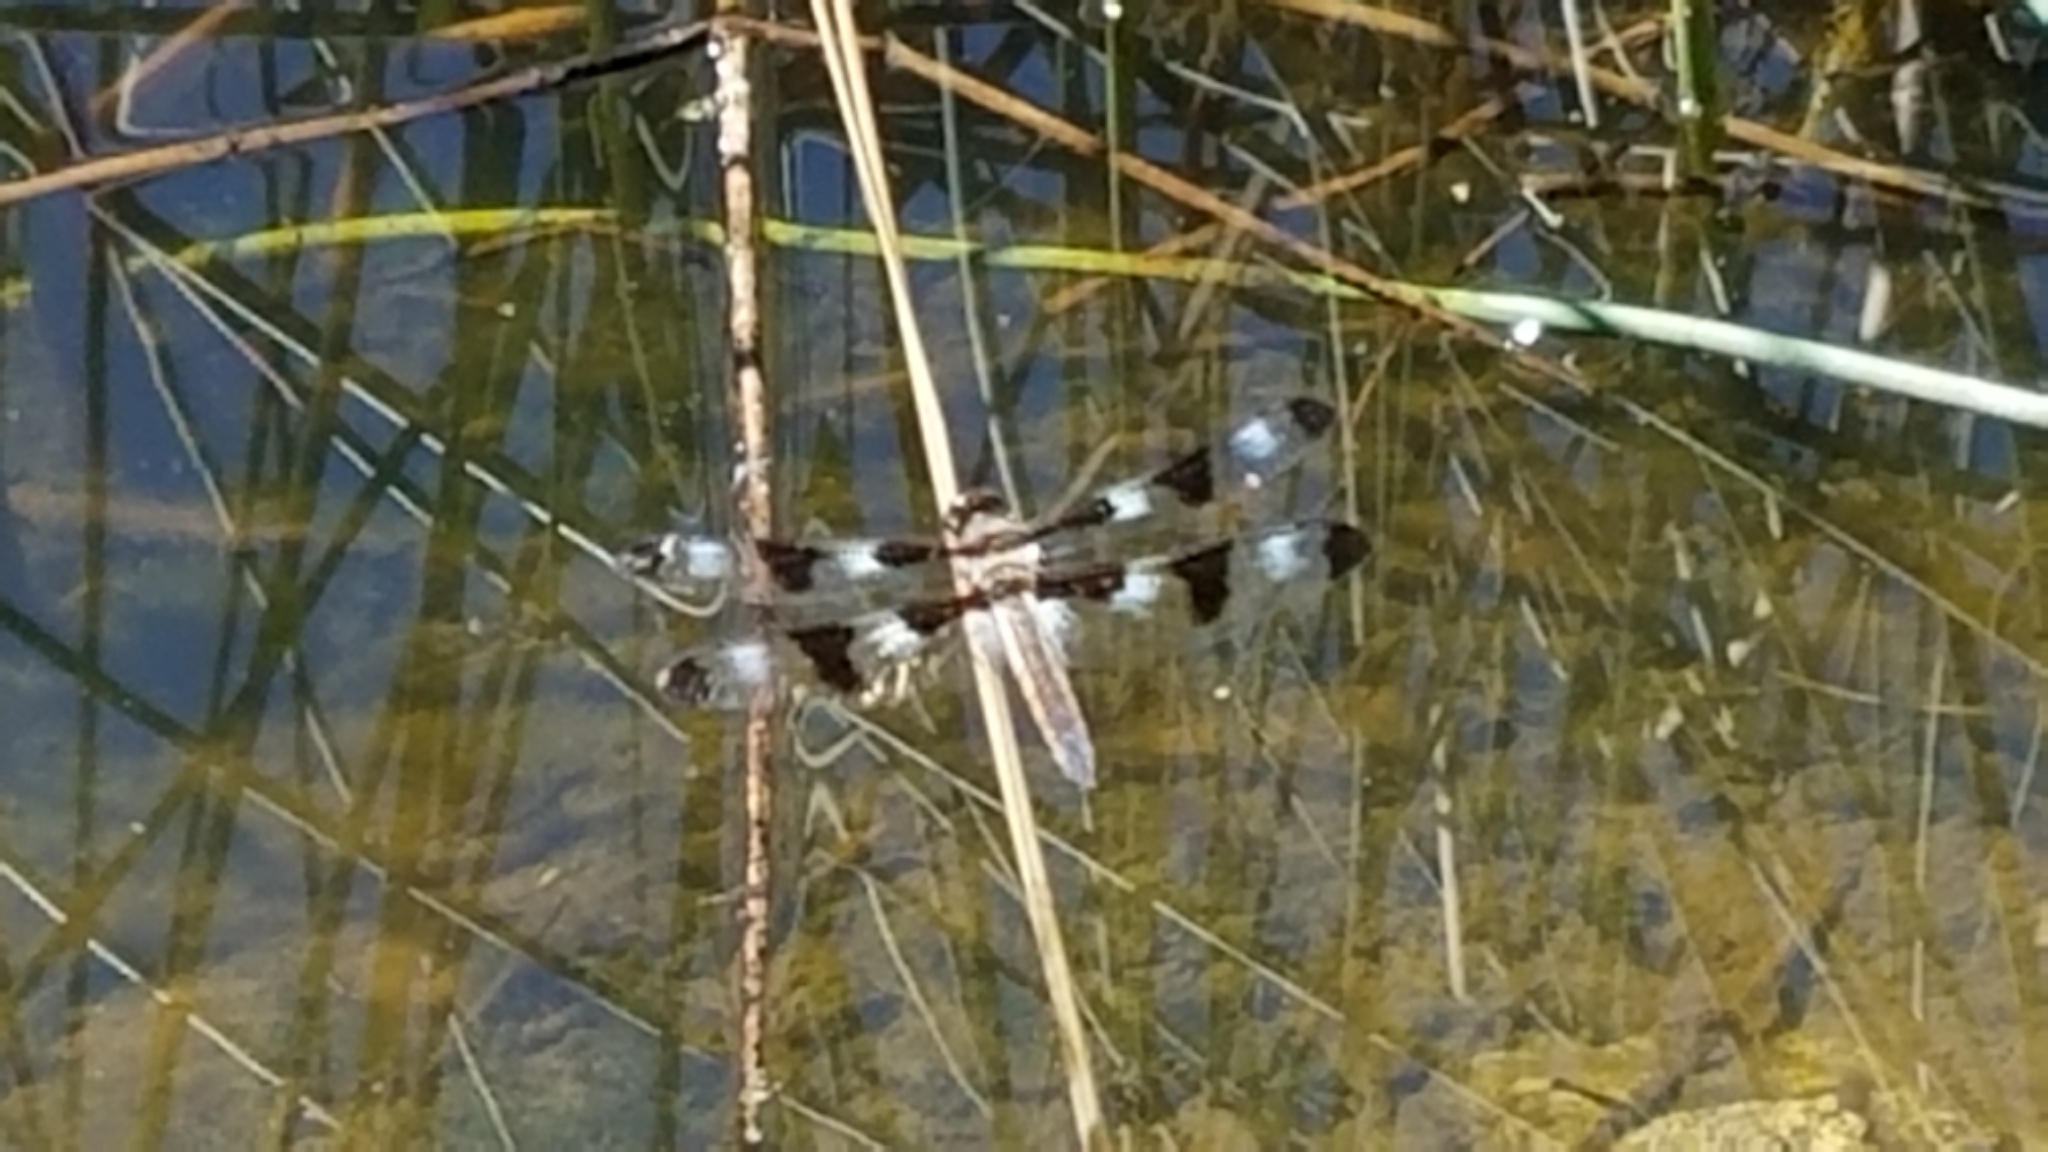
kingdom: Animalia
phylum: Arthropoda
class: Insecta
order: Odonata
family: Libellulidae
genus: Libellula
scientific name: Libellula pulchella
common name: Twelve-spotted skimmer
